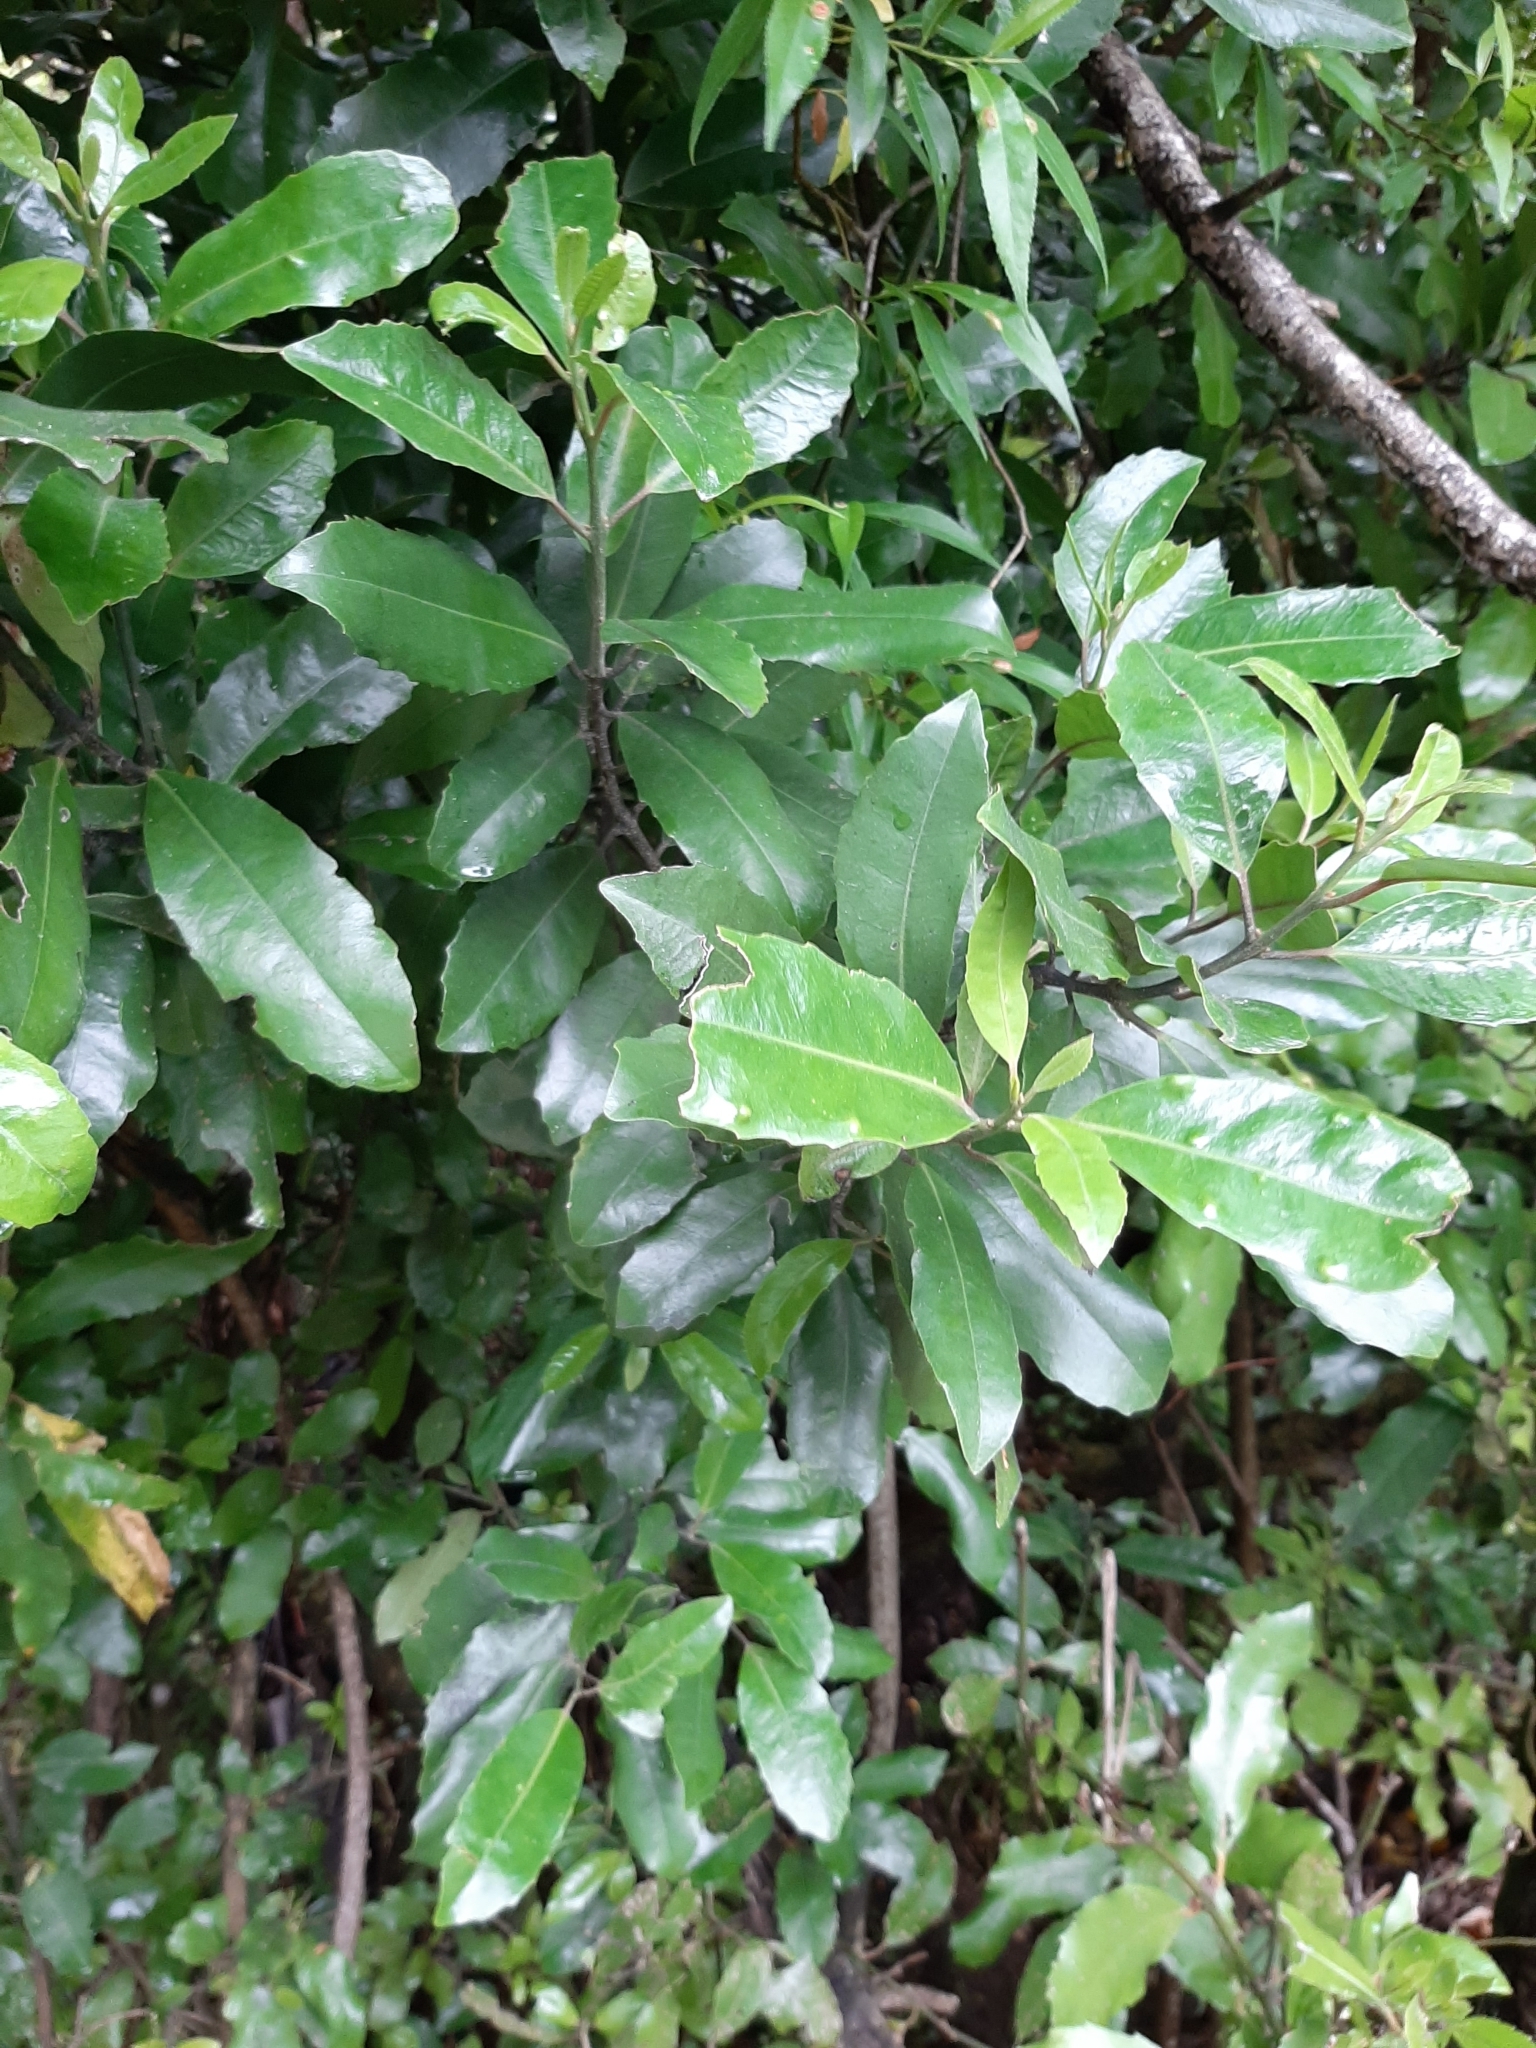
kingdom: Plantae
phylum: Tracheophyta
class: Magnoliopsida
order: Laurales
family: Monimiaceae
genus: Hedycarya
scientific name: Hedycarya arborea
